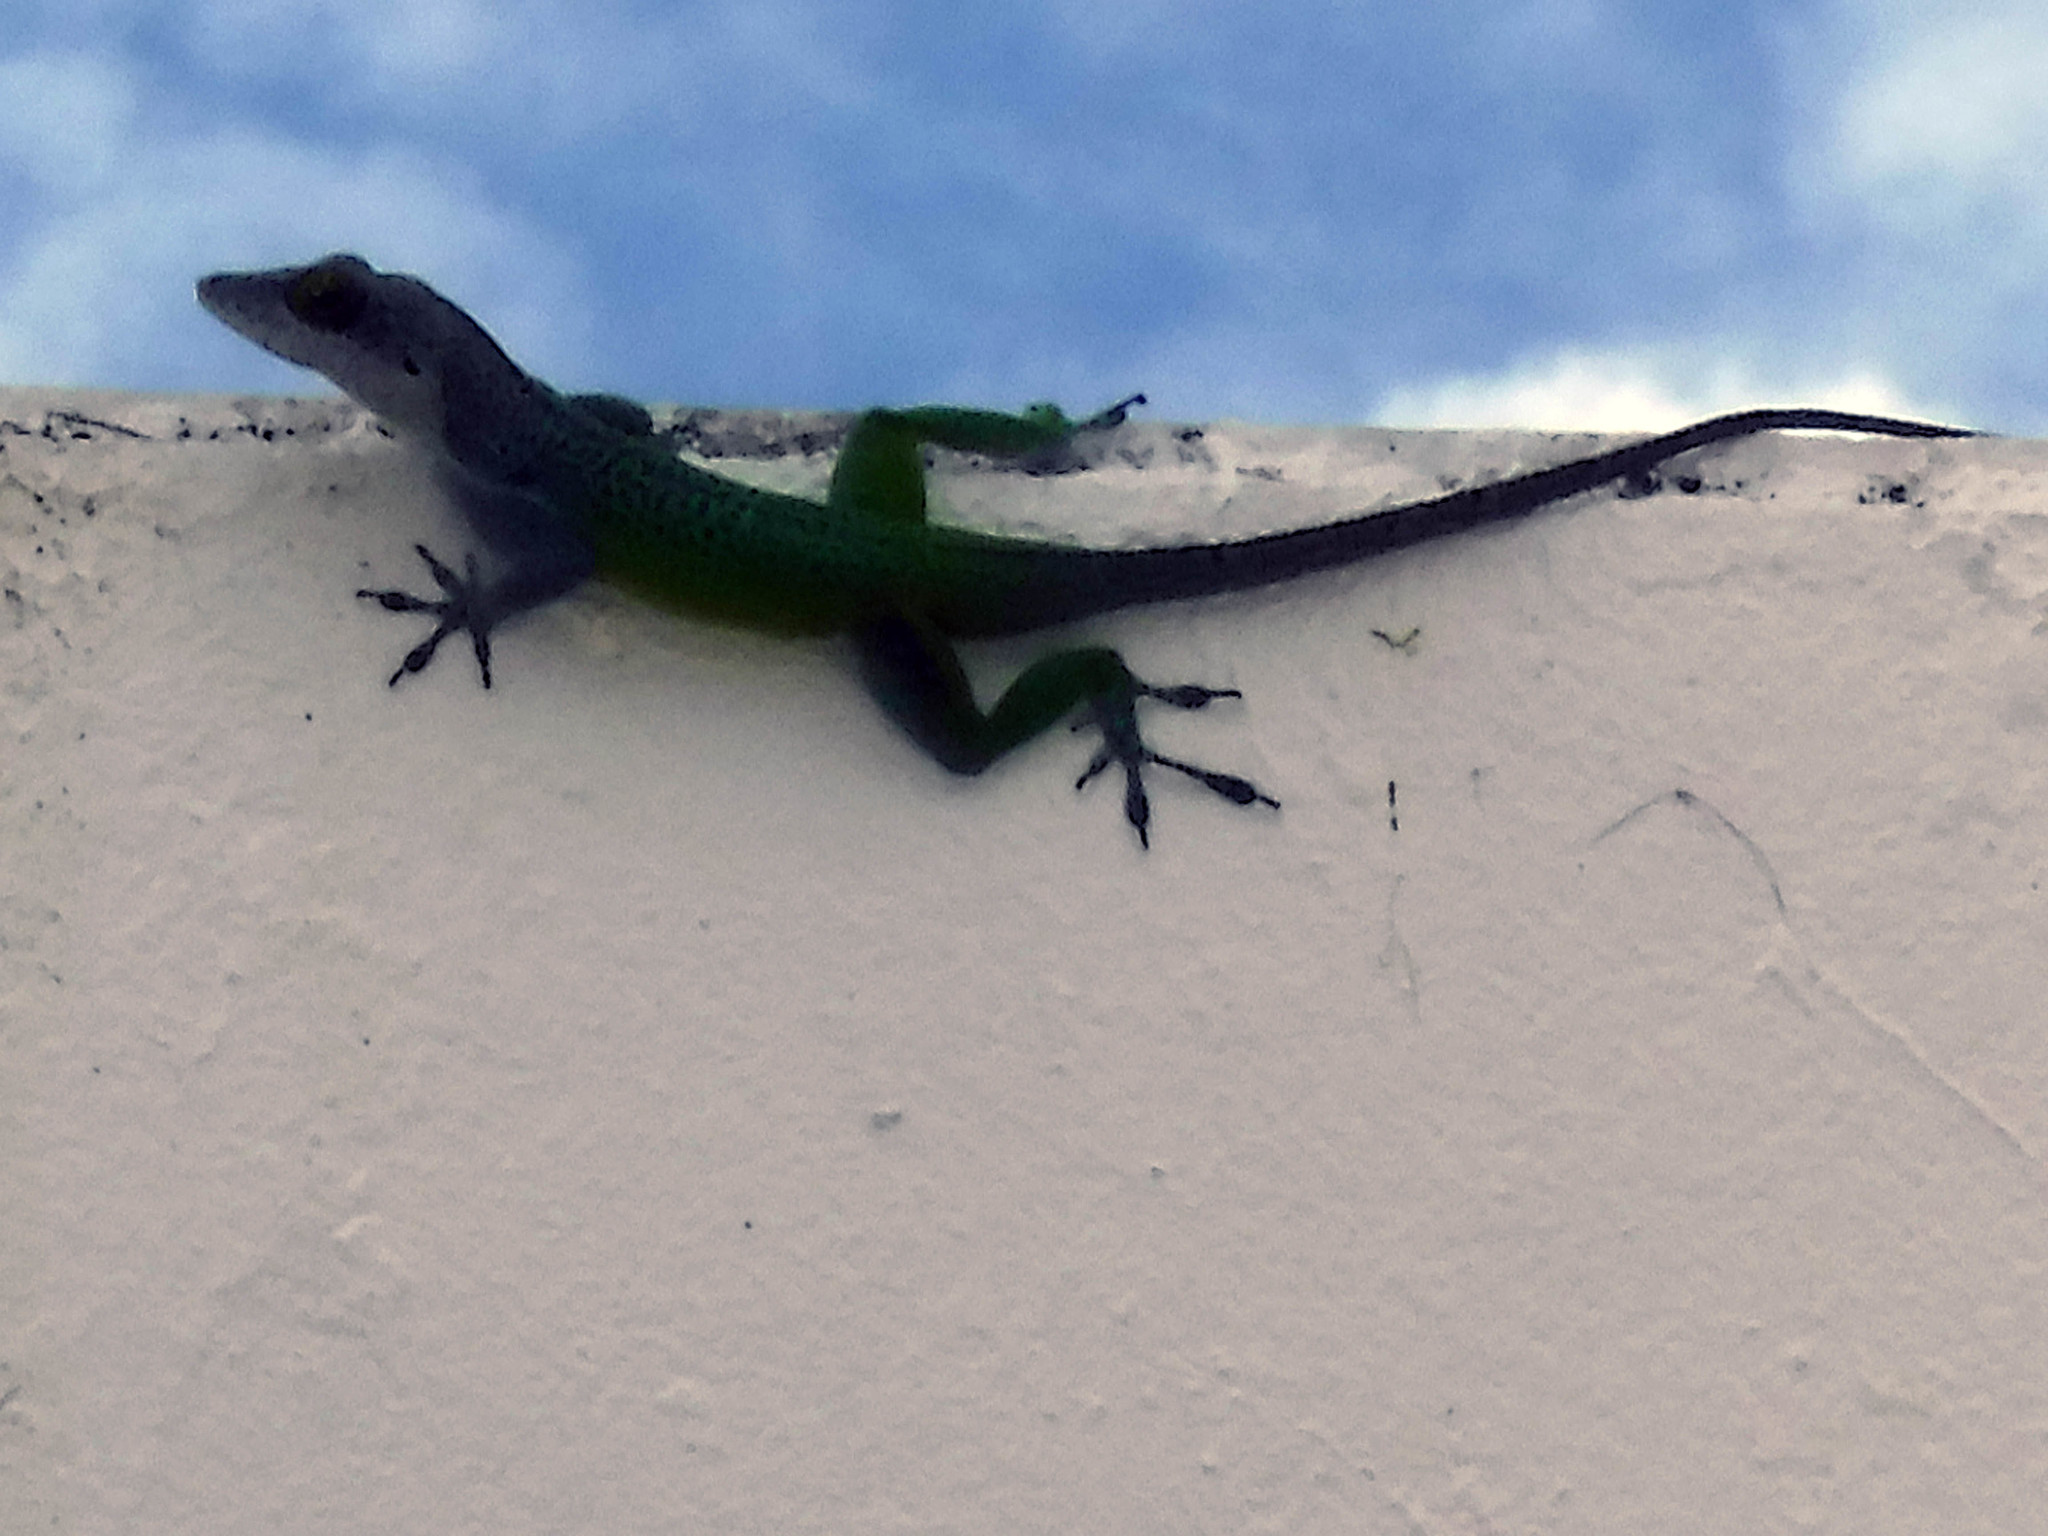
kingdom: Animalia
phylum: Chordata
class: Squamata
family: Dactyloidae
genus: Anolis
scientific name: Anolis leachii
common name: Barbuda bank tree anole
